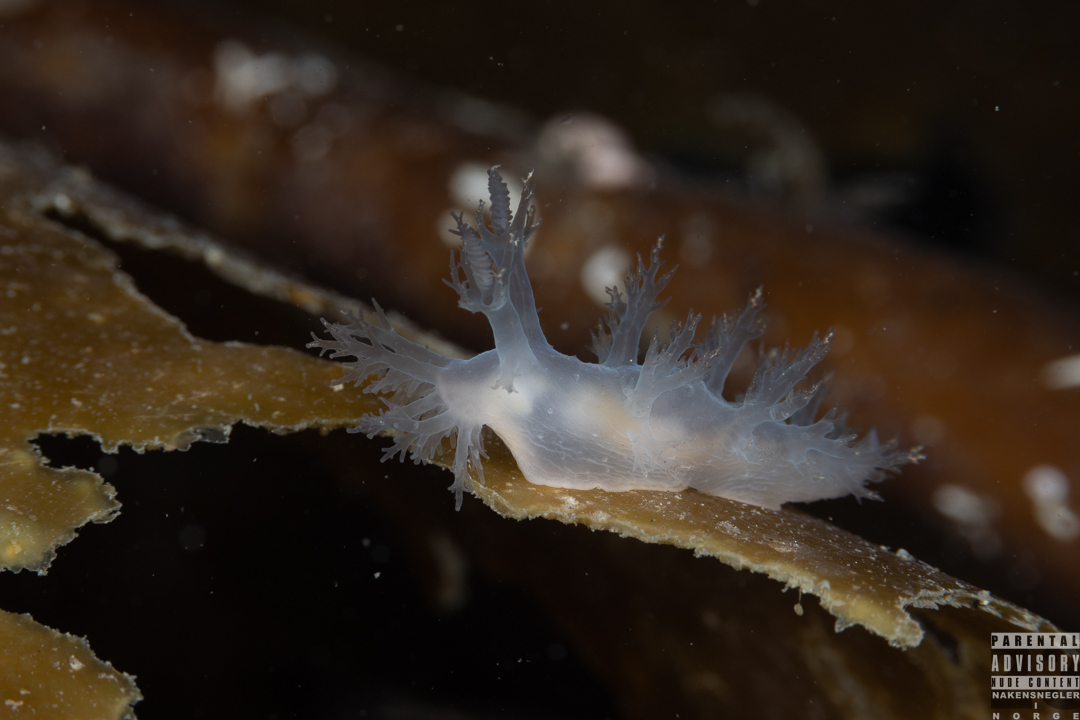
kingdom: Animalia
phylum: Mollusca
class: Gastropoda
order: Nudibranchia
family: Dendronotidae
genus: Dendronotus
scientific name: Dendronotus frondosus
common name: Bushy-backed nudibranch
